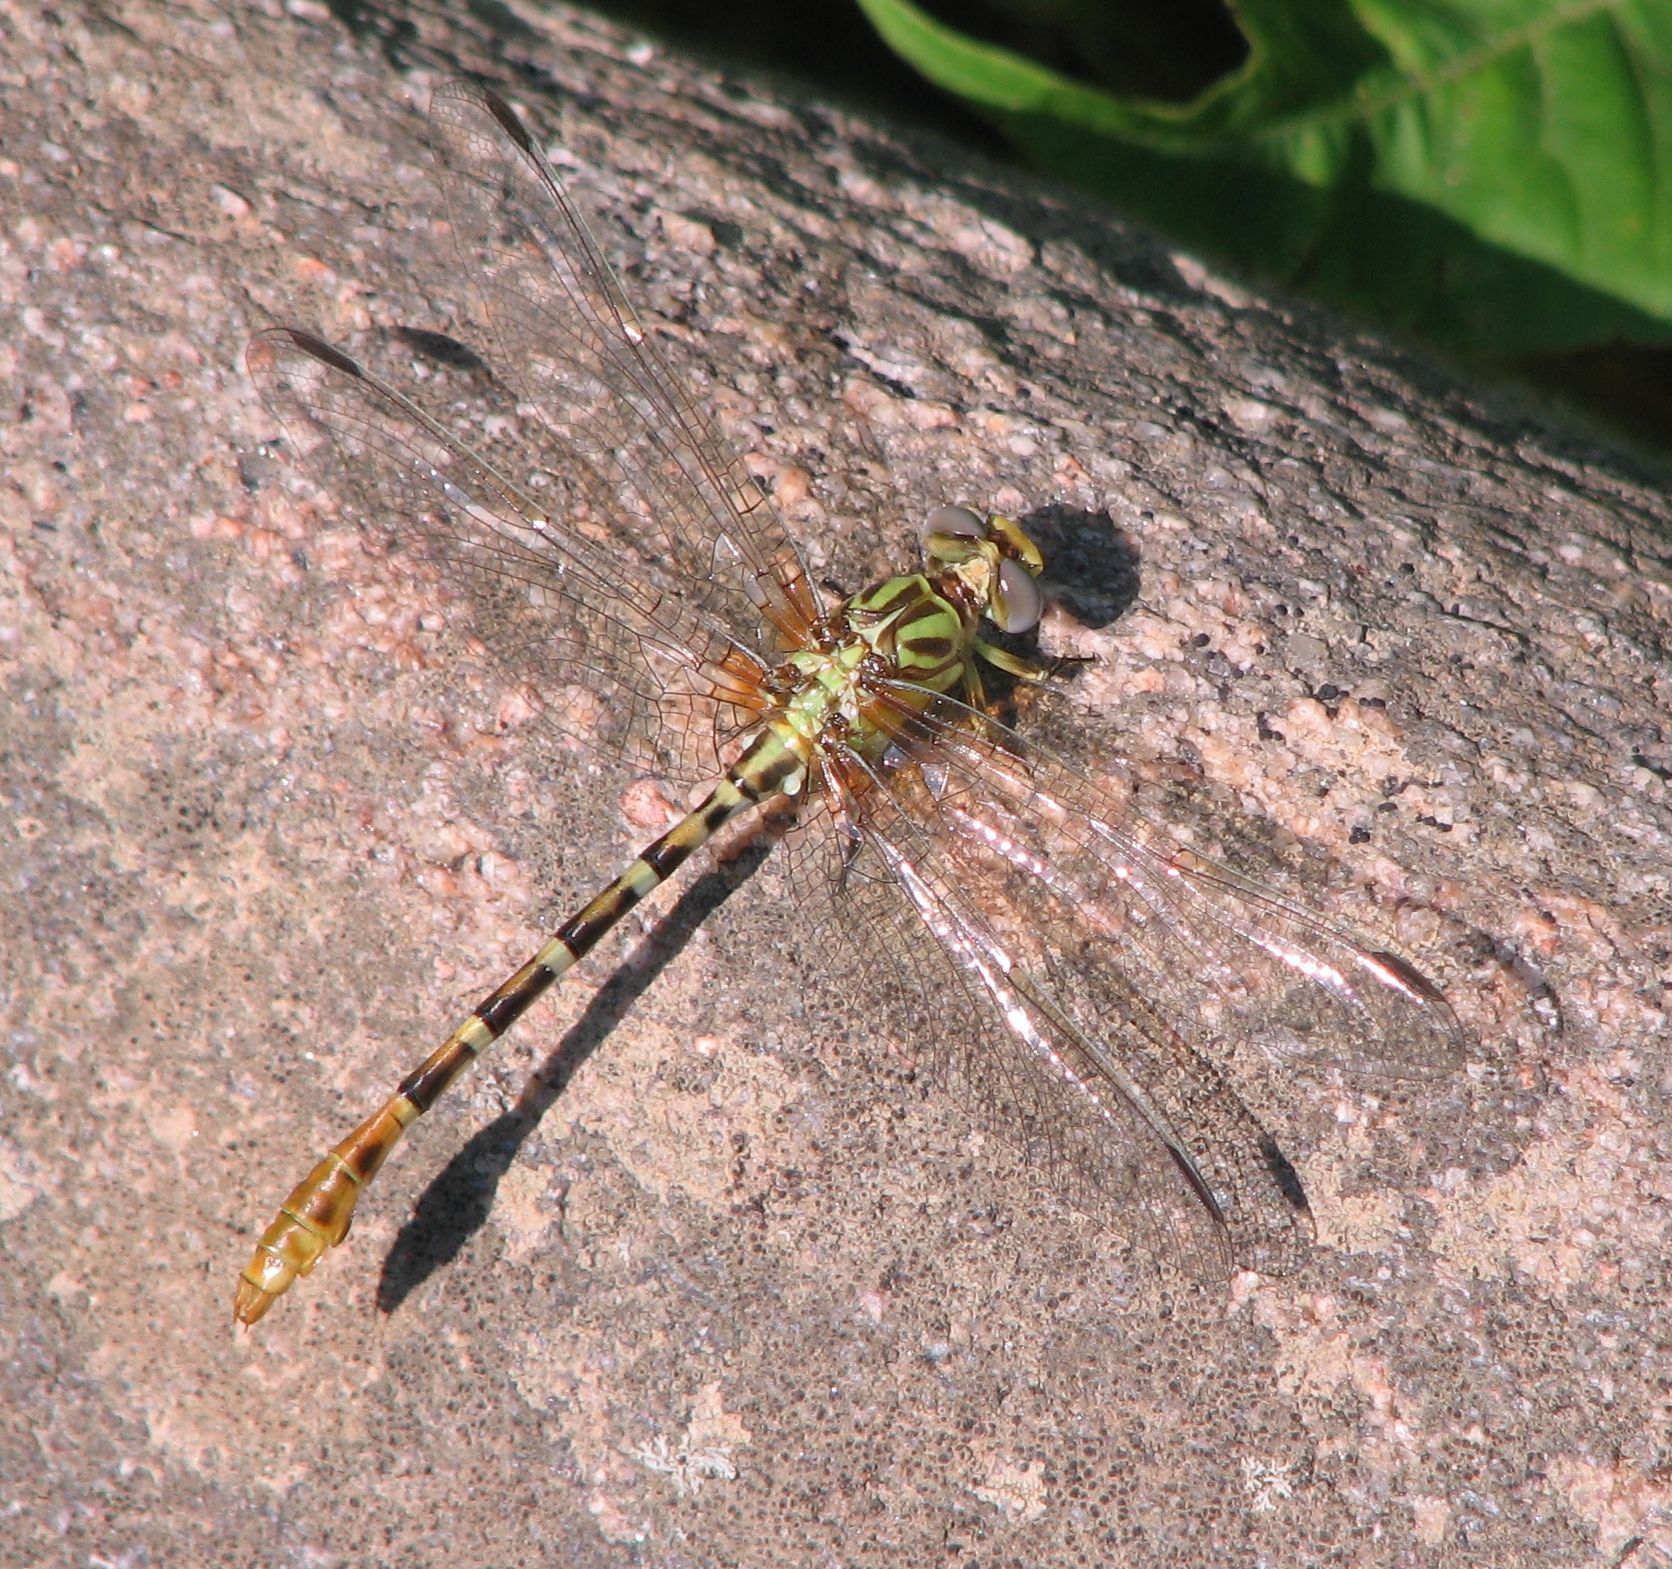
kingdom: Animalia
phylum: Arthropoda
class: Insecta
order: Odonata
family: Gomphidae
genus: Erpetogomphus
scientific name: Erpetogomphus designatus
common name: Eastern ringtail
